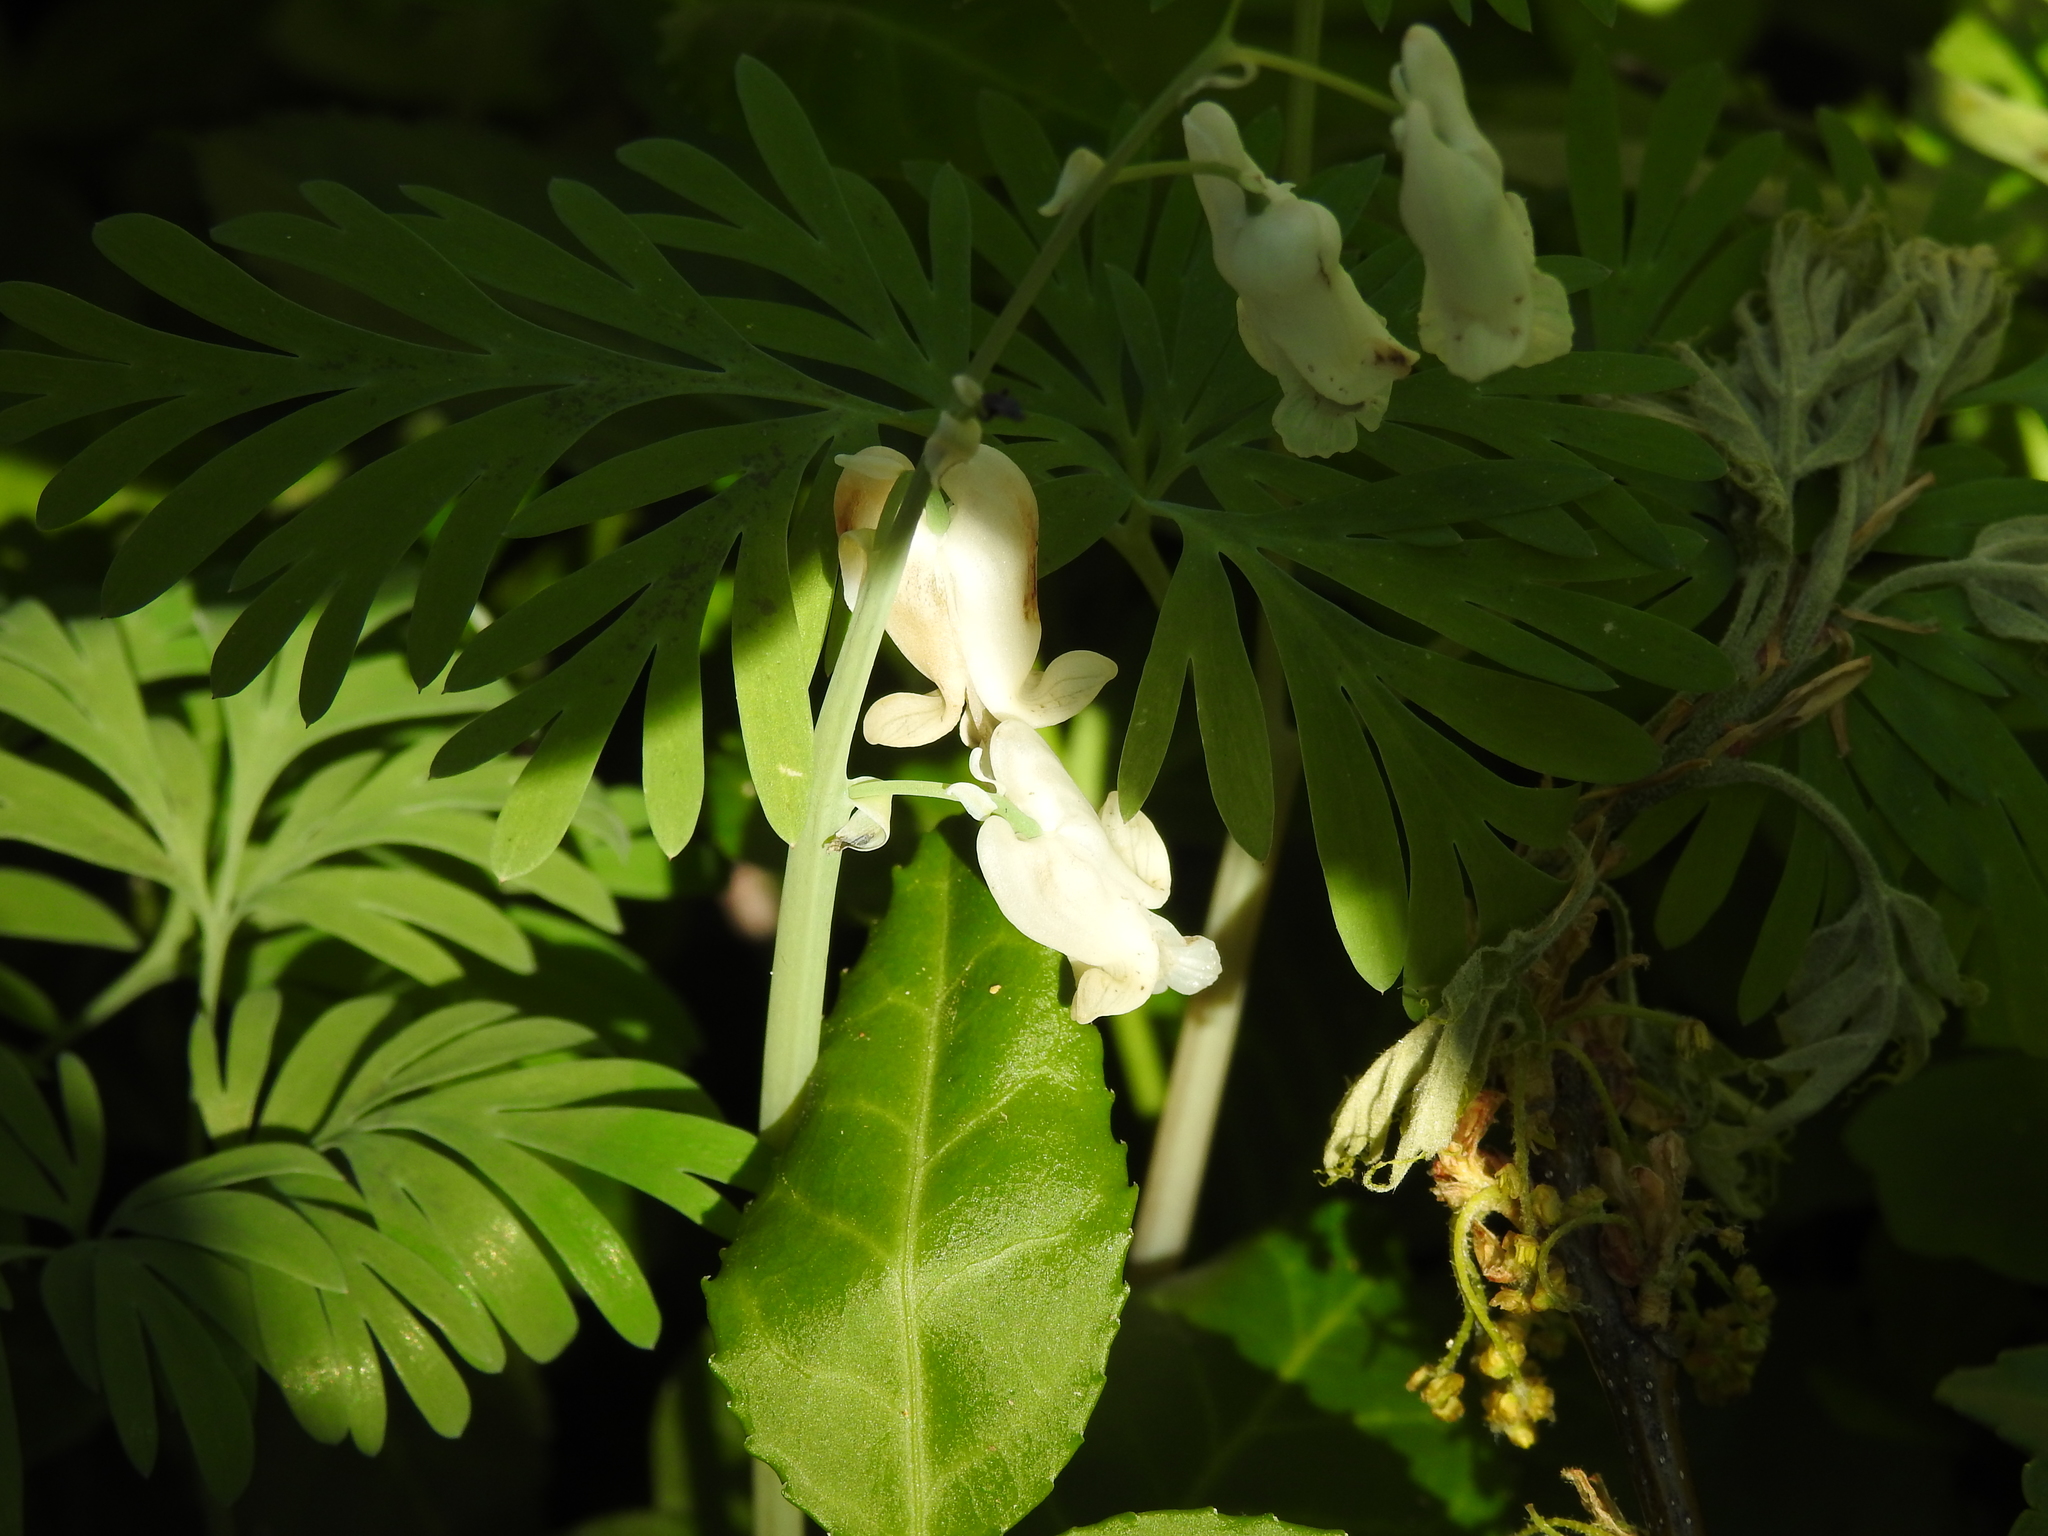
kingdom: Plantae
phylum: Tracheophyta
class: Magnoliopsida
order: Ranunculales
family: Papaveraceae
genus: Dicentra
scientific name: Dicentra canadensis
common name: Squirrel-corn
